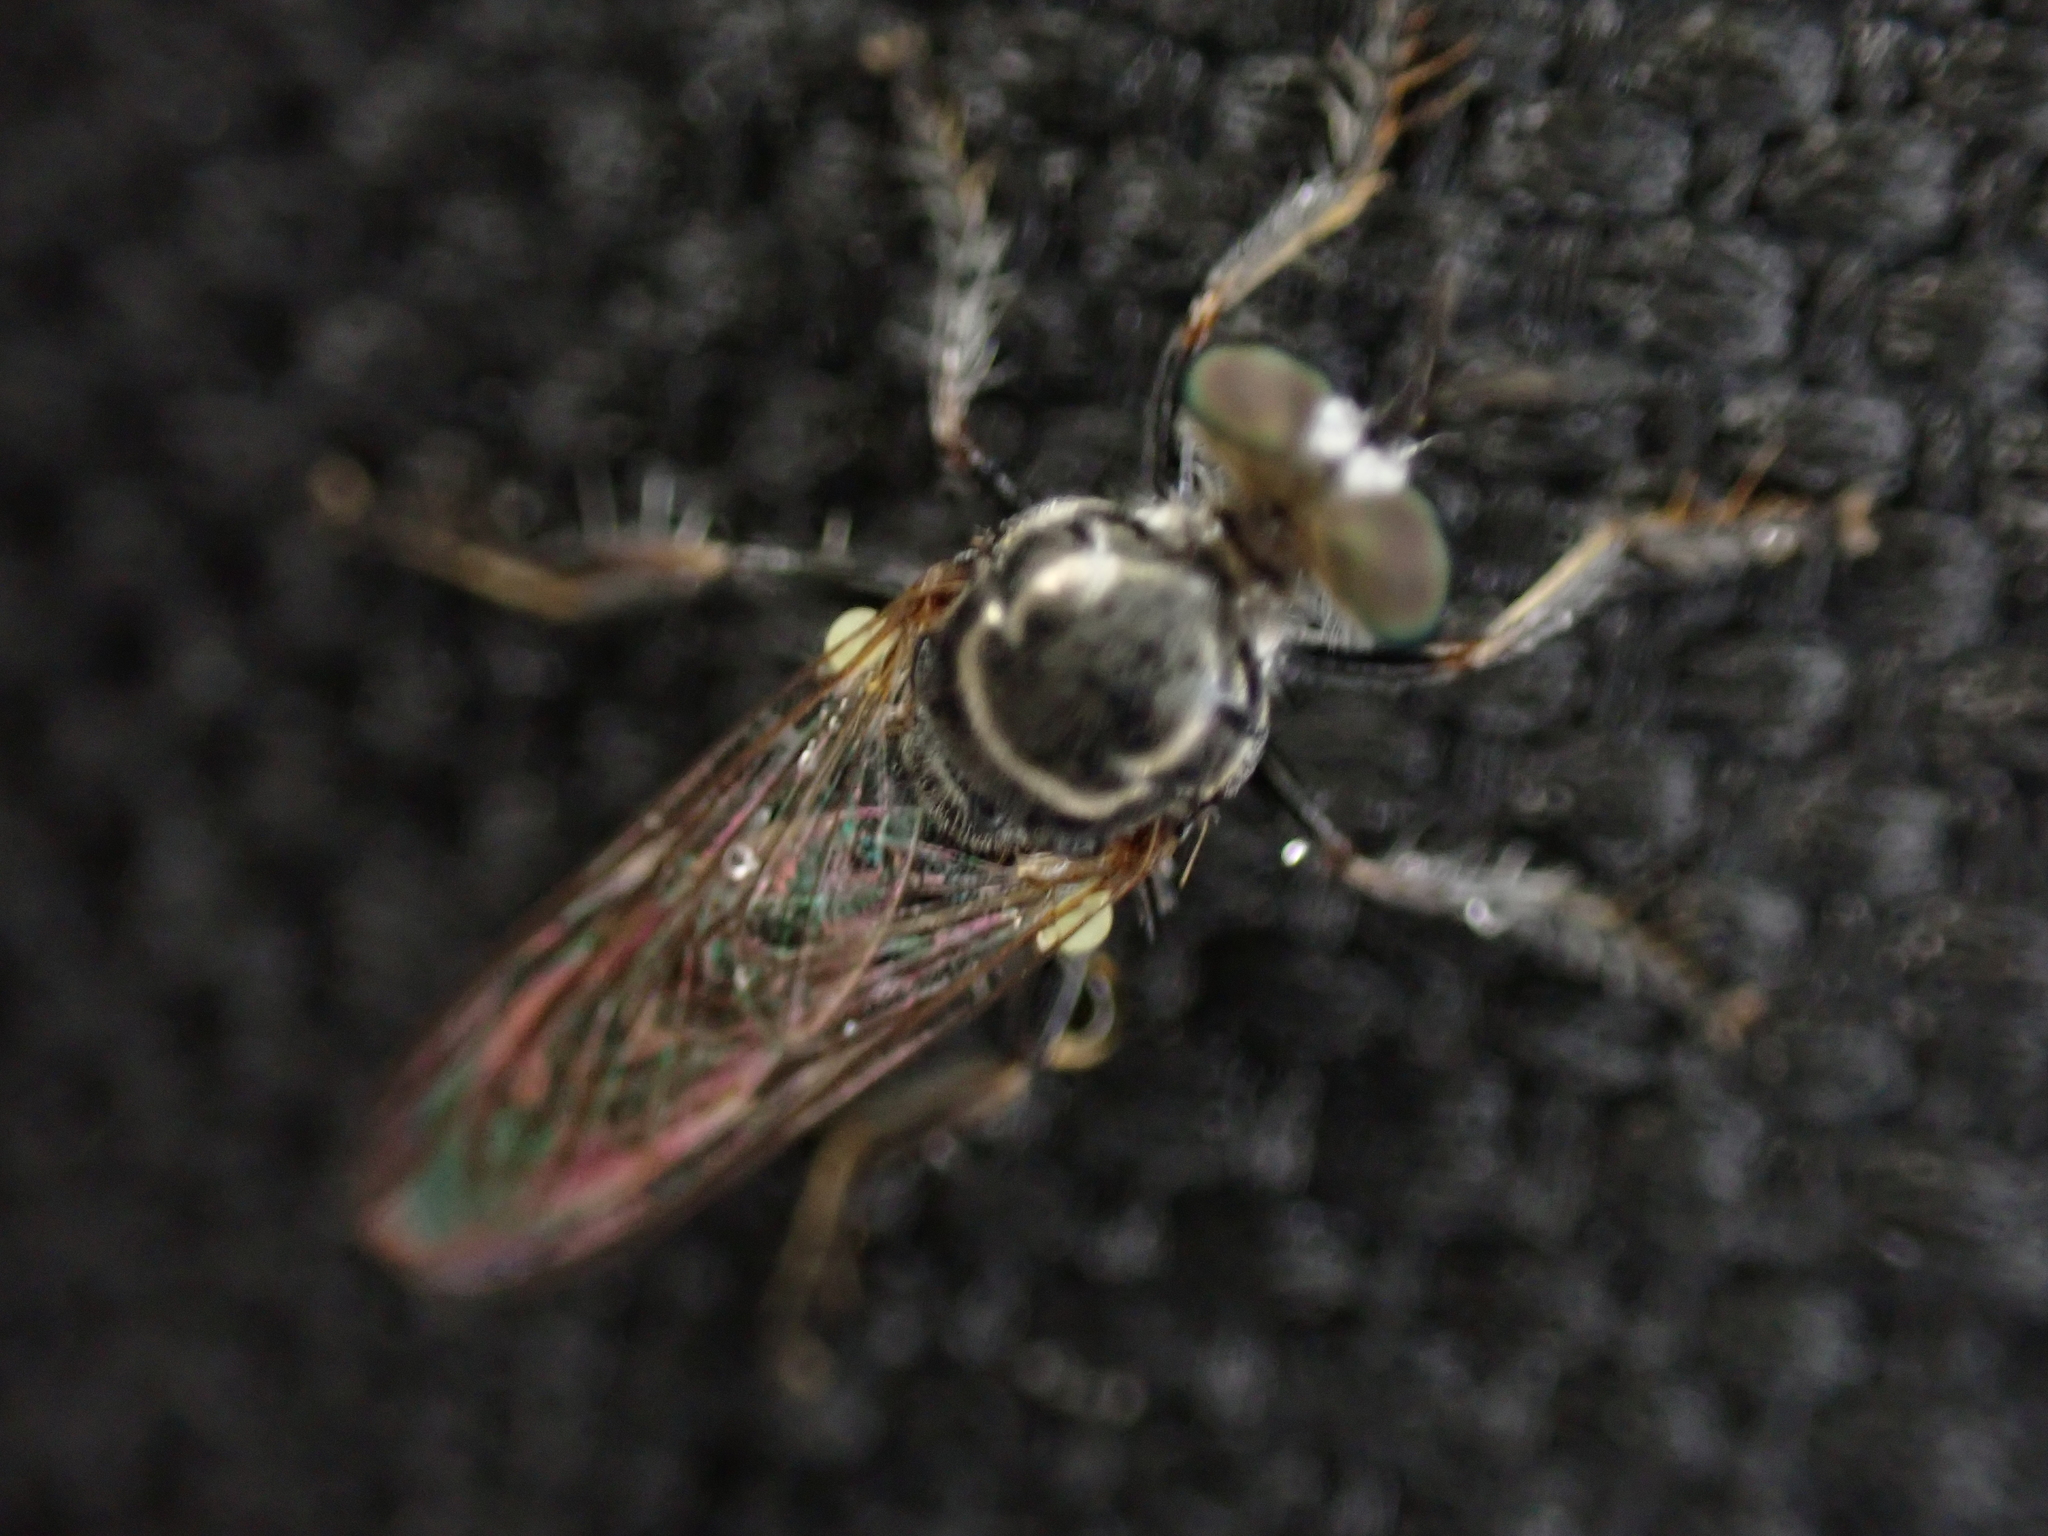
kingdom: Animalia
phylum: Arthropoda
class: Insecta
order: Diptera
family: Asilidae
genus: Atomosia
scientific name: Atomosia puella
